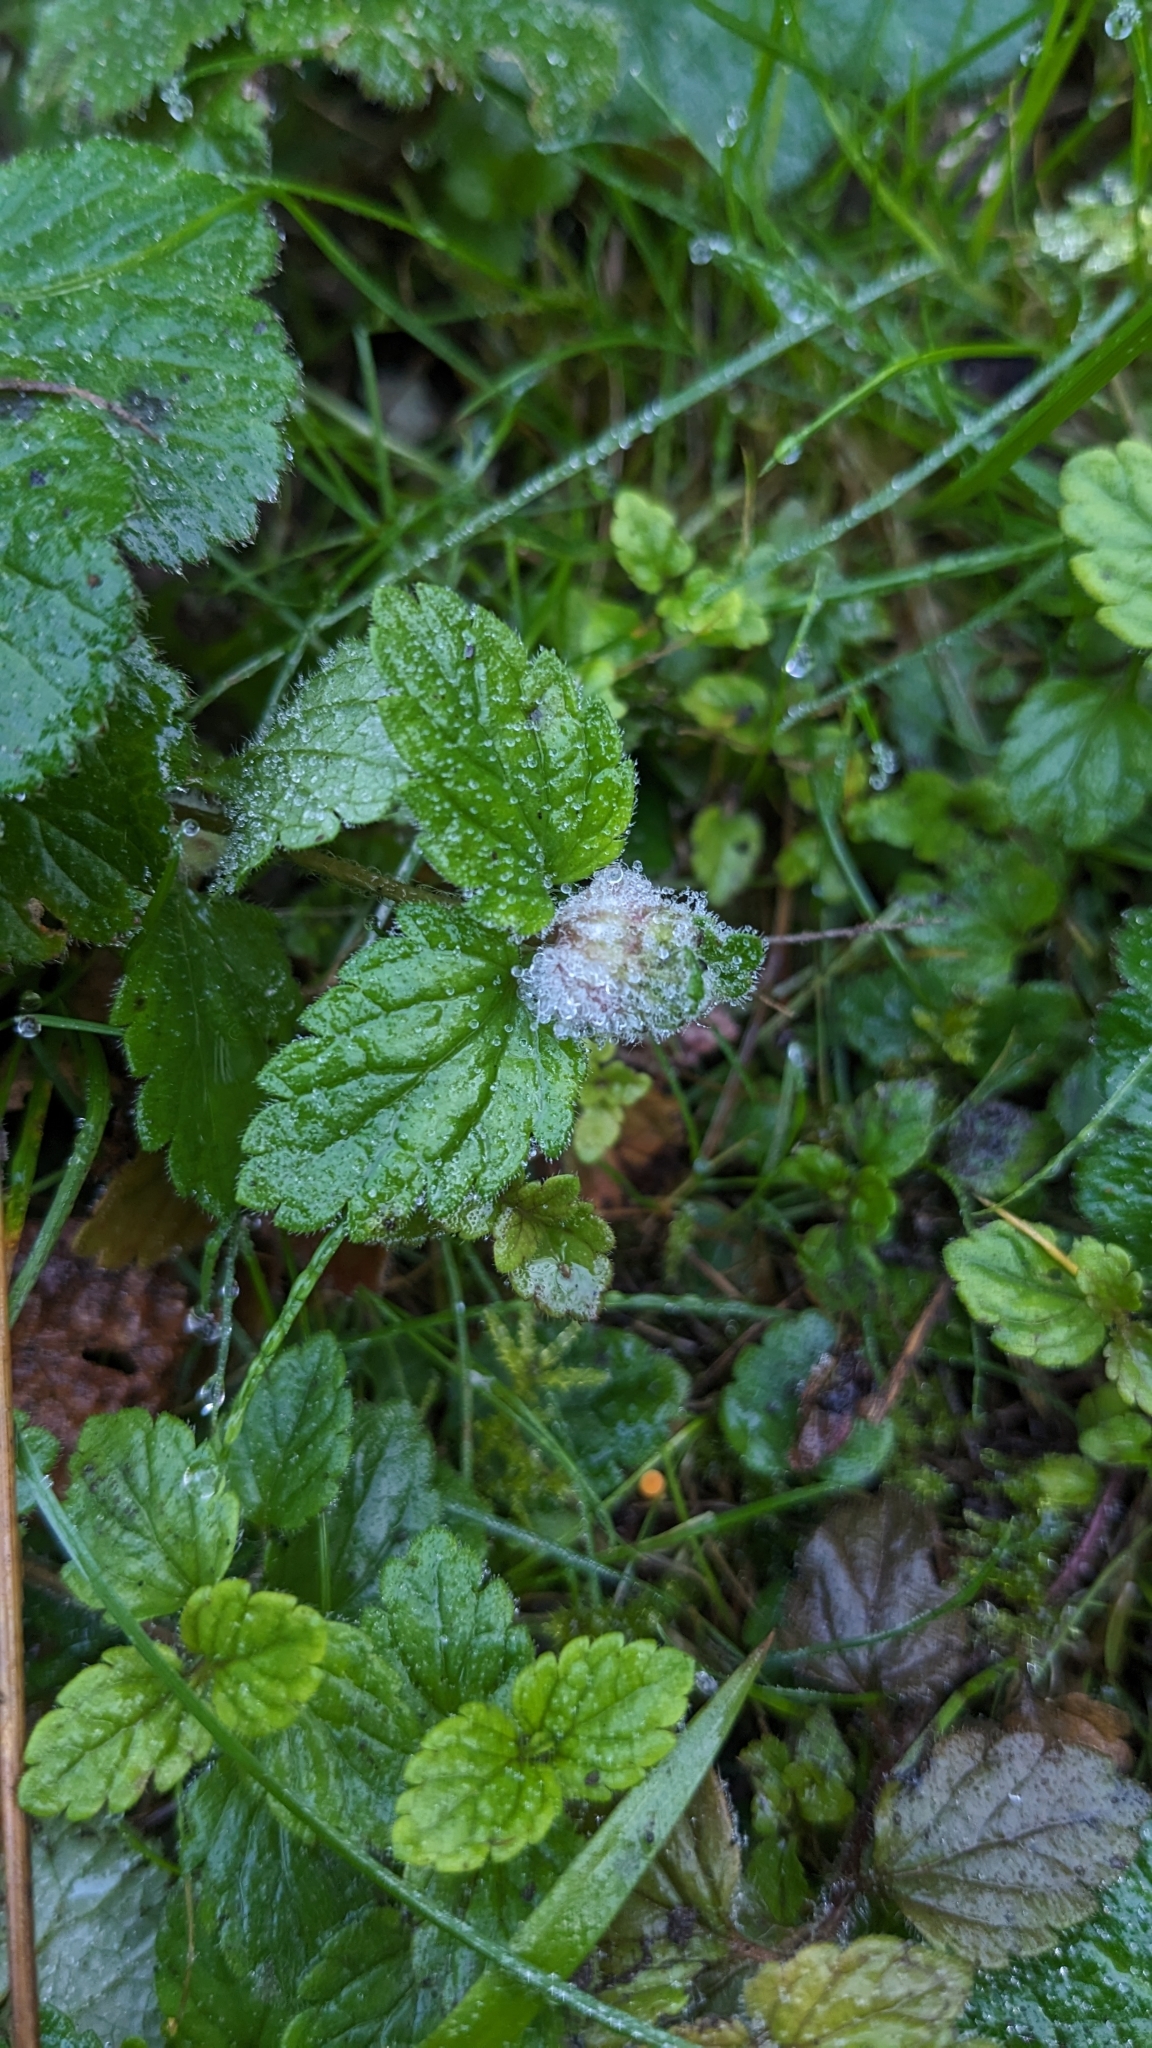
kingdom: Animalia
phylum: Arthropoda
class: Insecta
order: Diptera
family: Cecidomyiidae
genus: Jaapiella
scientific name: Jaapiella veronicae
